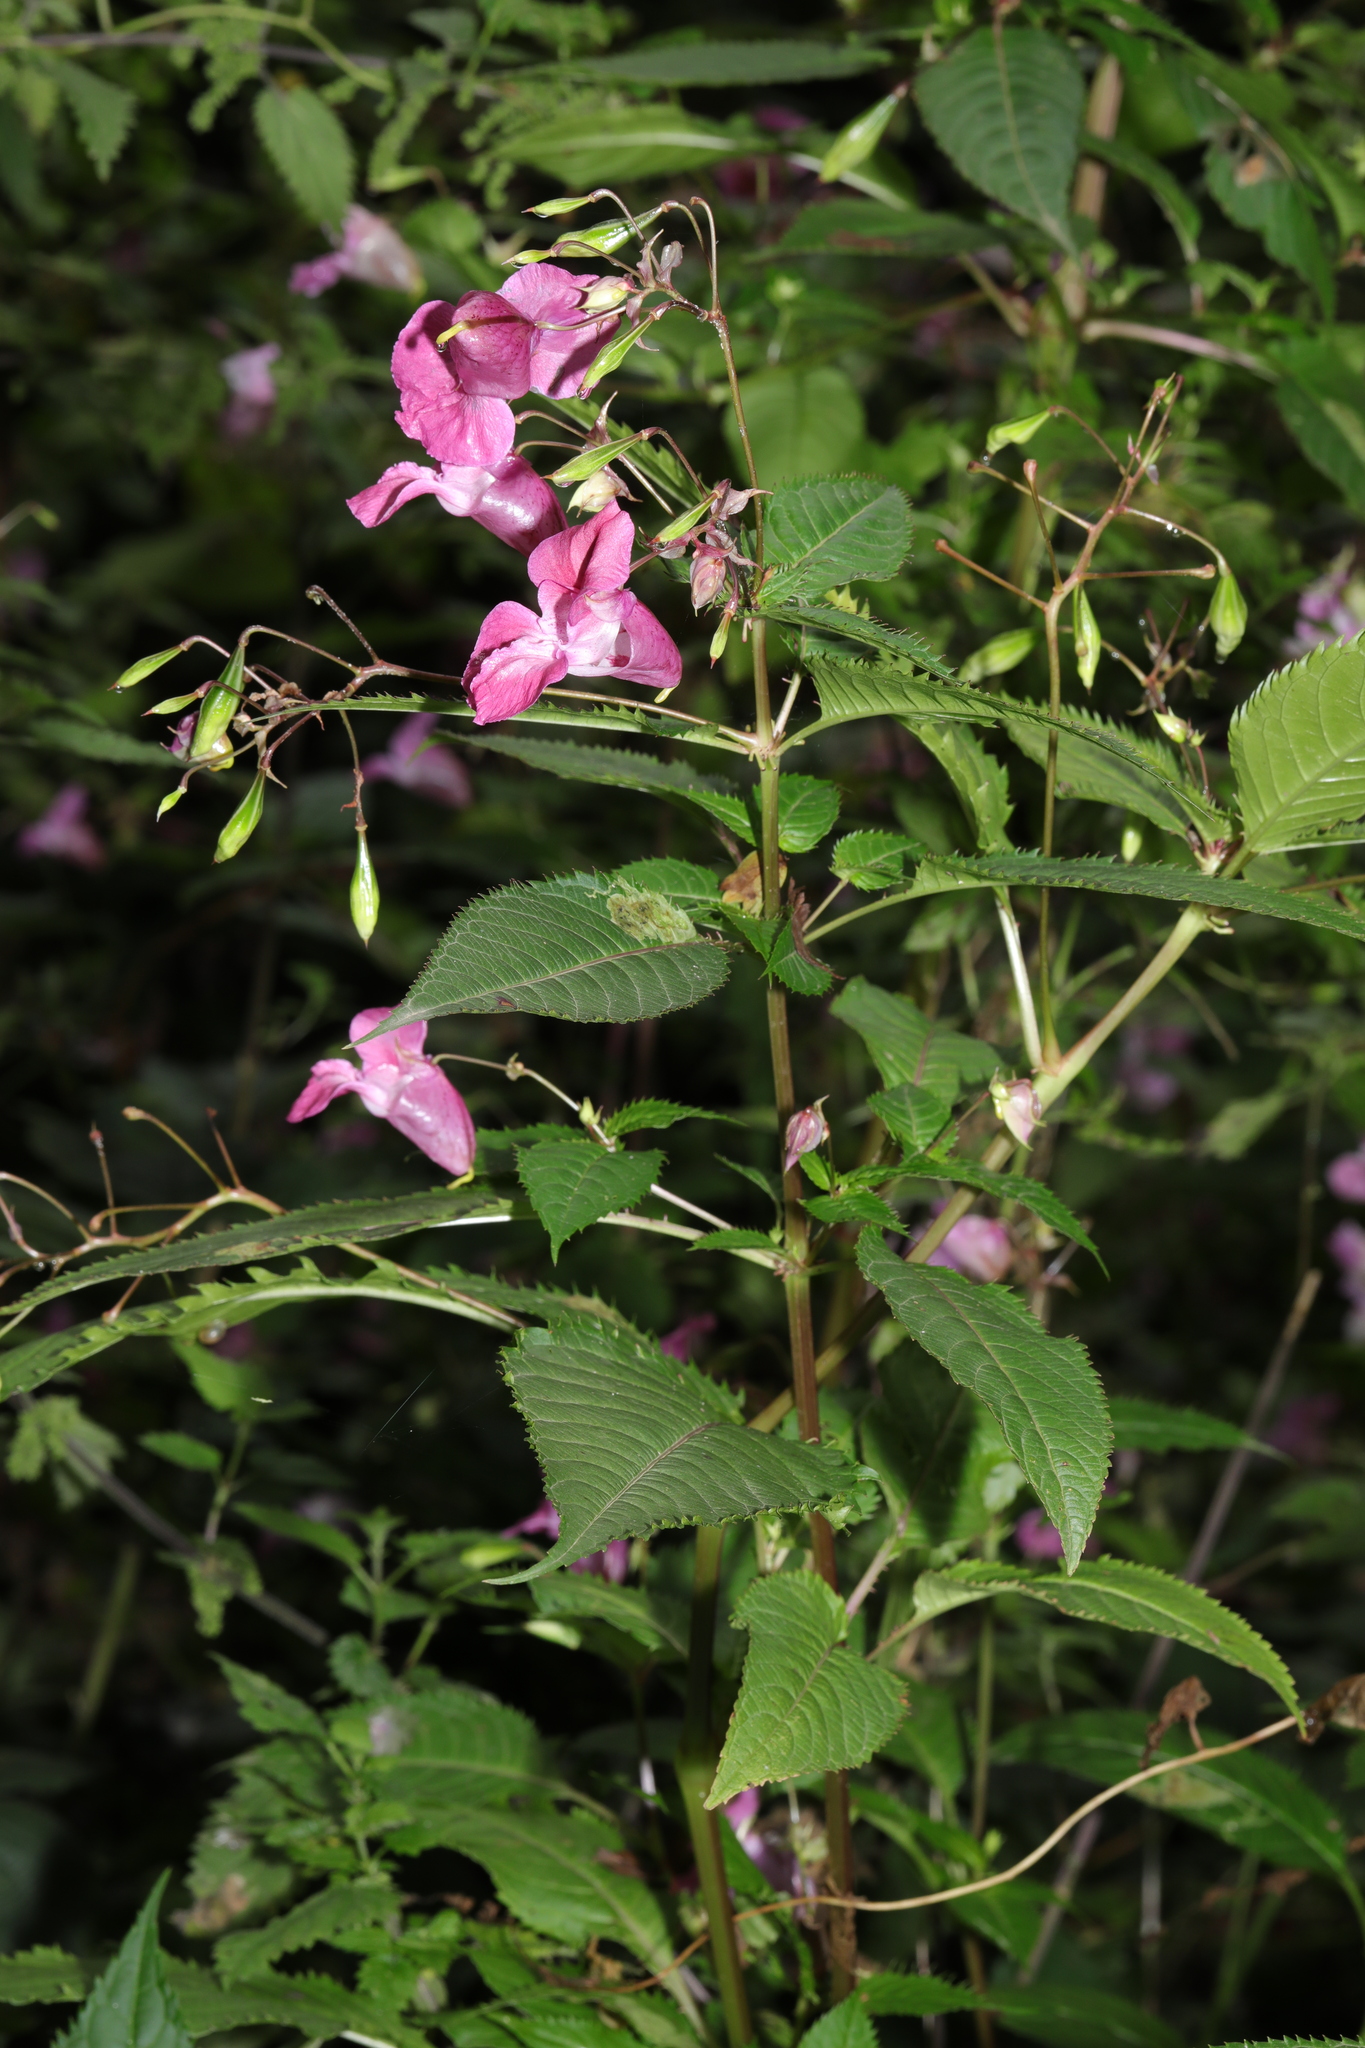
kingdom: Plantae
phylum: Tracheophyta
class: Magnoliopsida
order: Ericales
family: Balsaminaceae
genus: Impatiens
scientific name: Impatiens glandulifera
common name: Himalayan balsam
